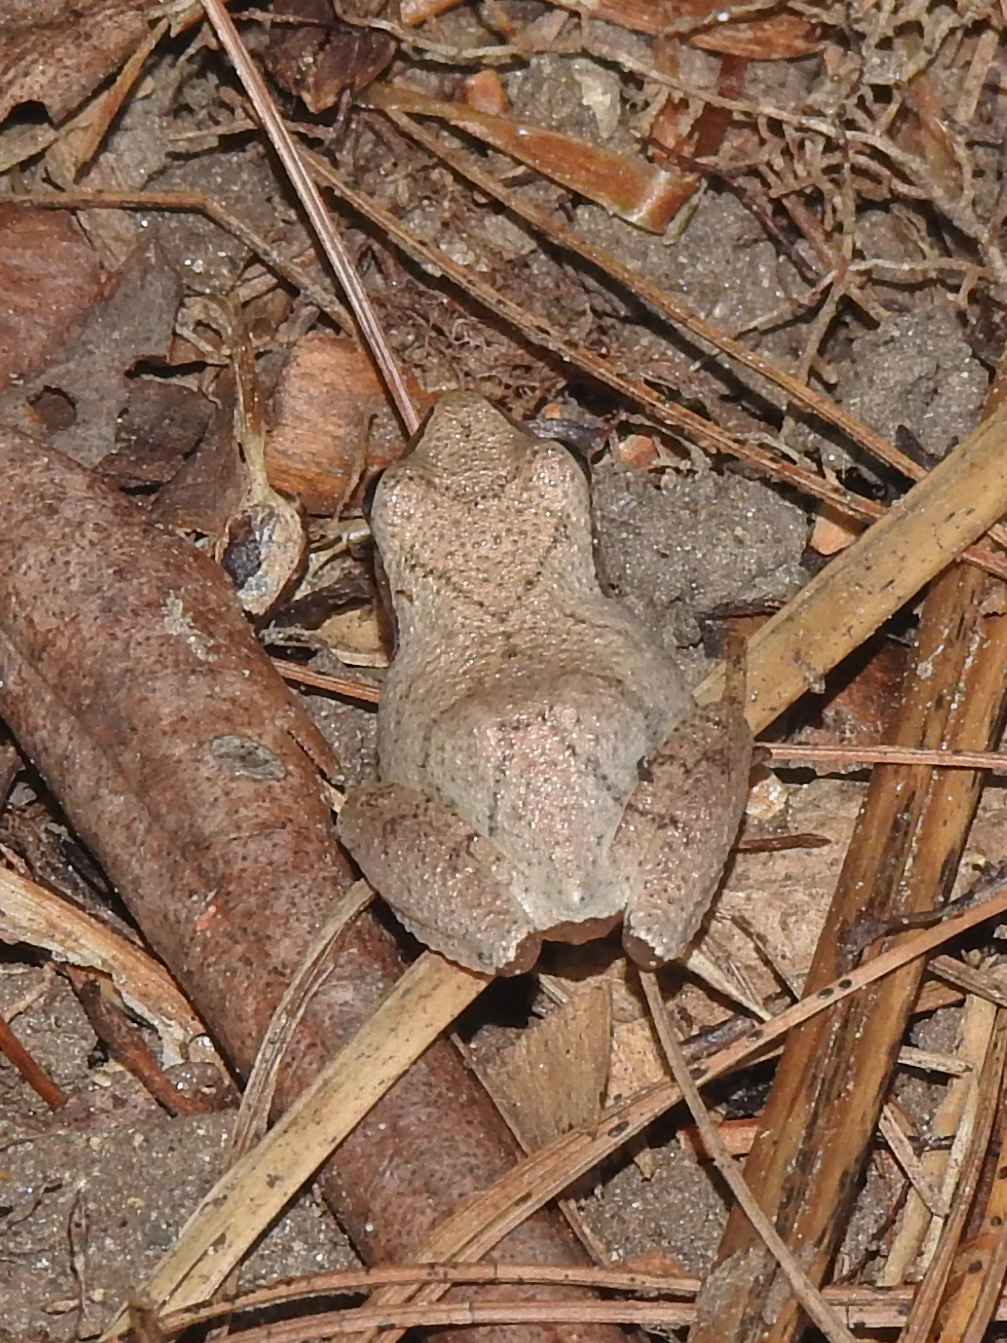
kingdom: Animalia
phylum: Chordata
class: Amphibia
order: Anura
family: Hylidae
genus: Pseudacris
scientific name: Pseudacris crucifer
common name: Spring peeper
